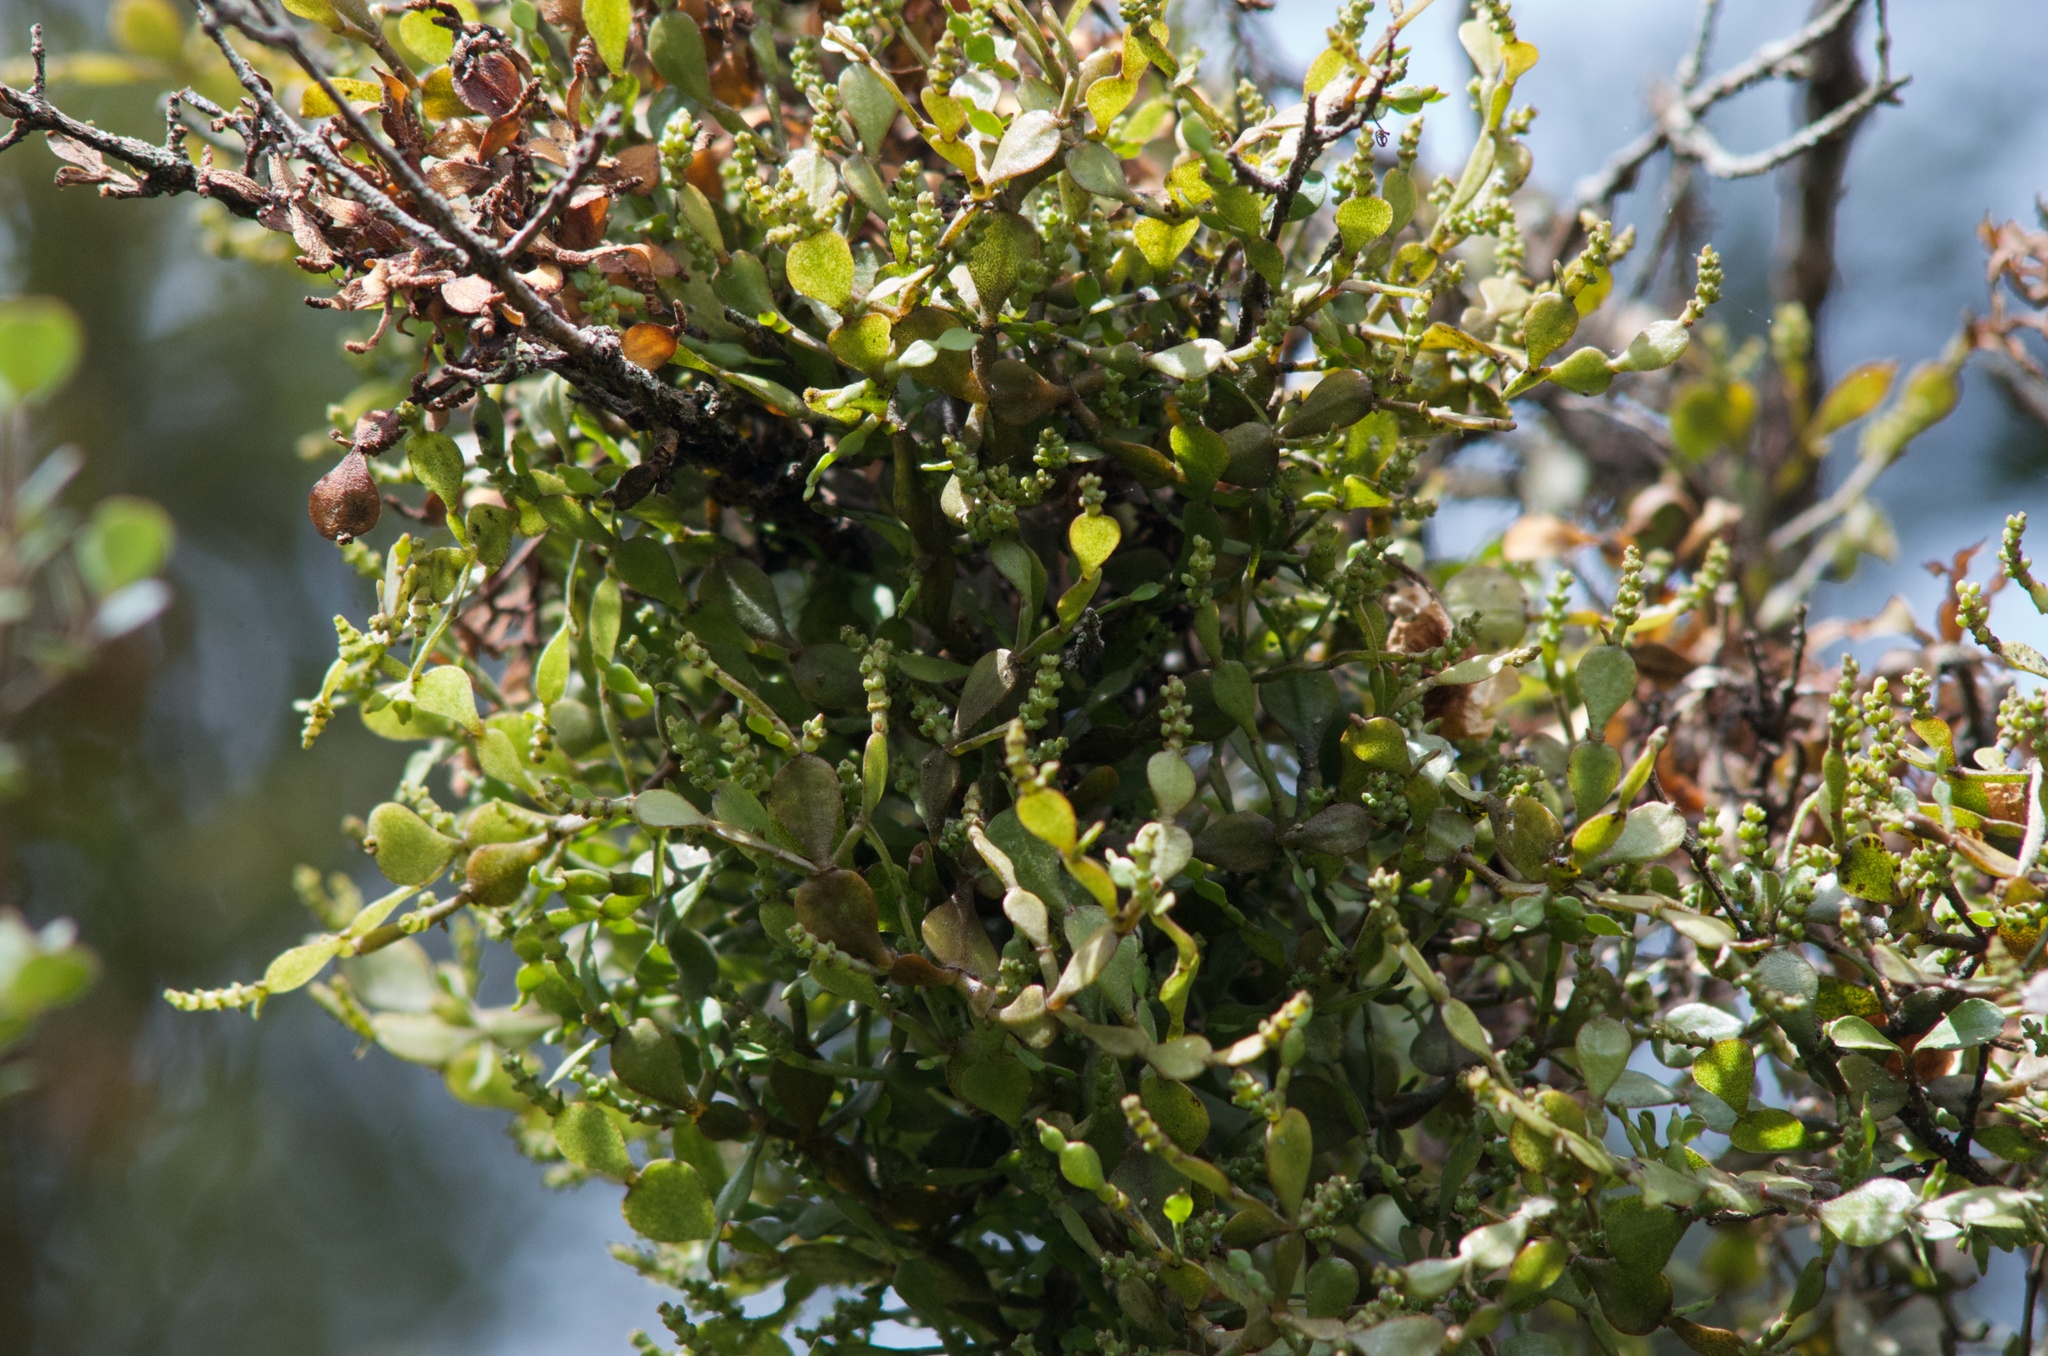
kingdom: Plantae
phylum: Tracheophyta
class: Magnoliopsida
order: Santalales
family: Viscaceae
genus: Korthalsella
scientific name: Korthalsella lindsayi
